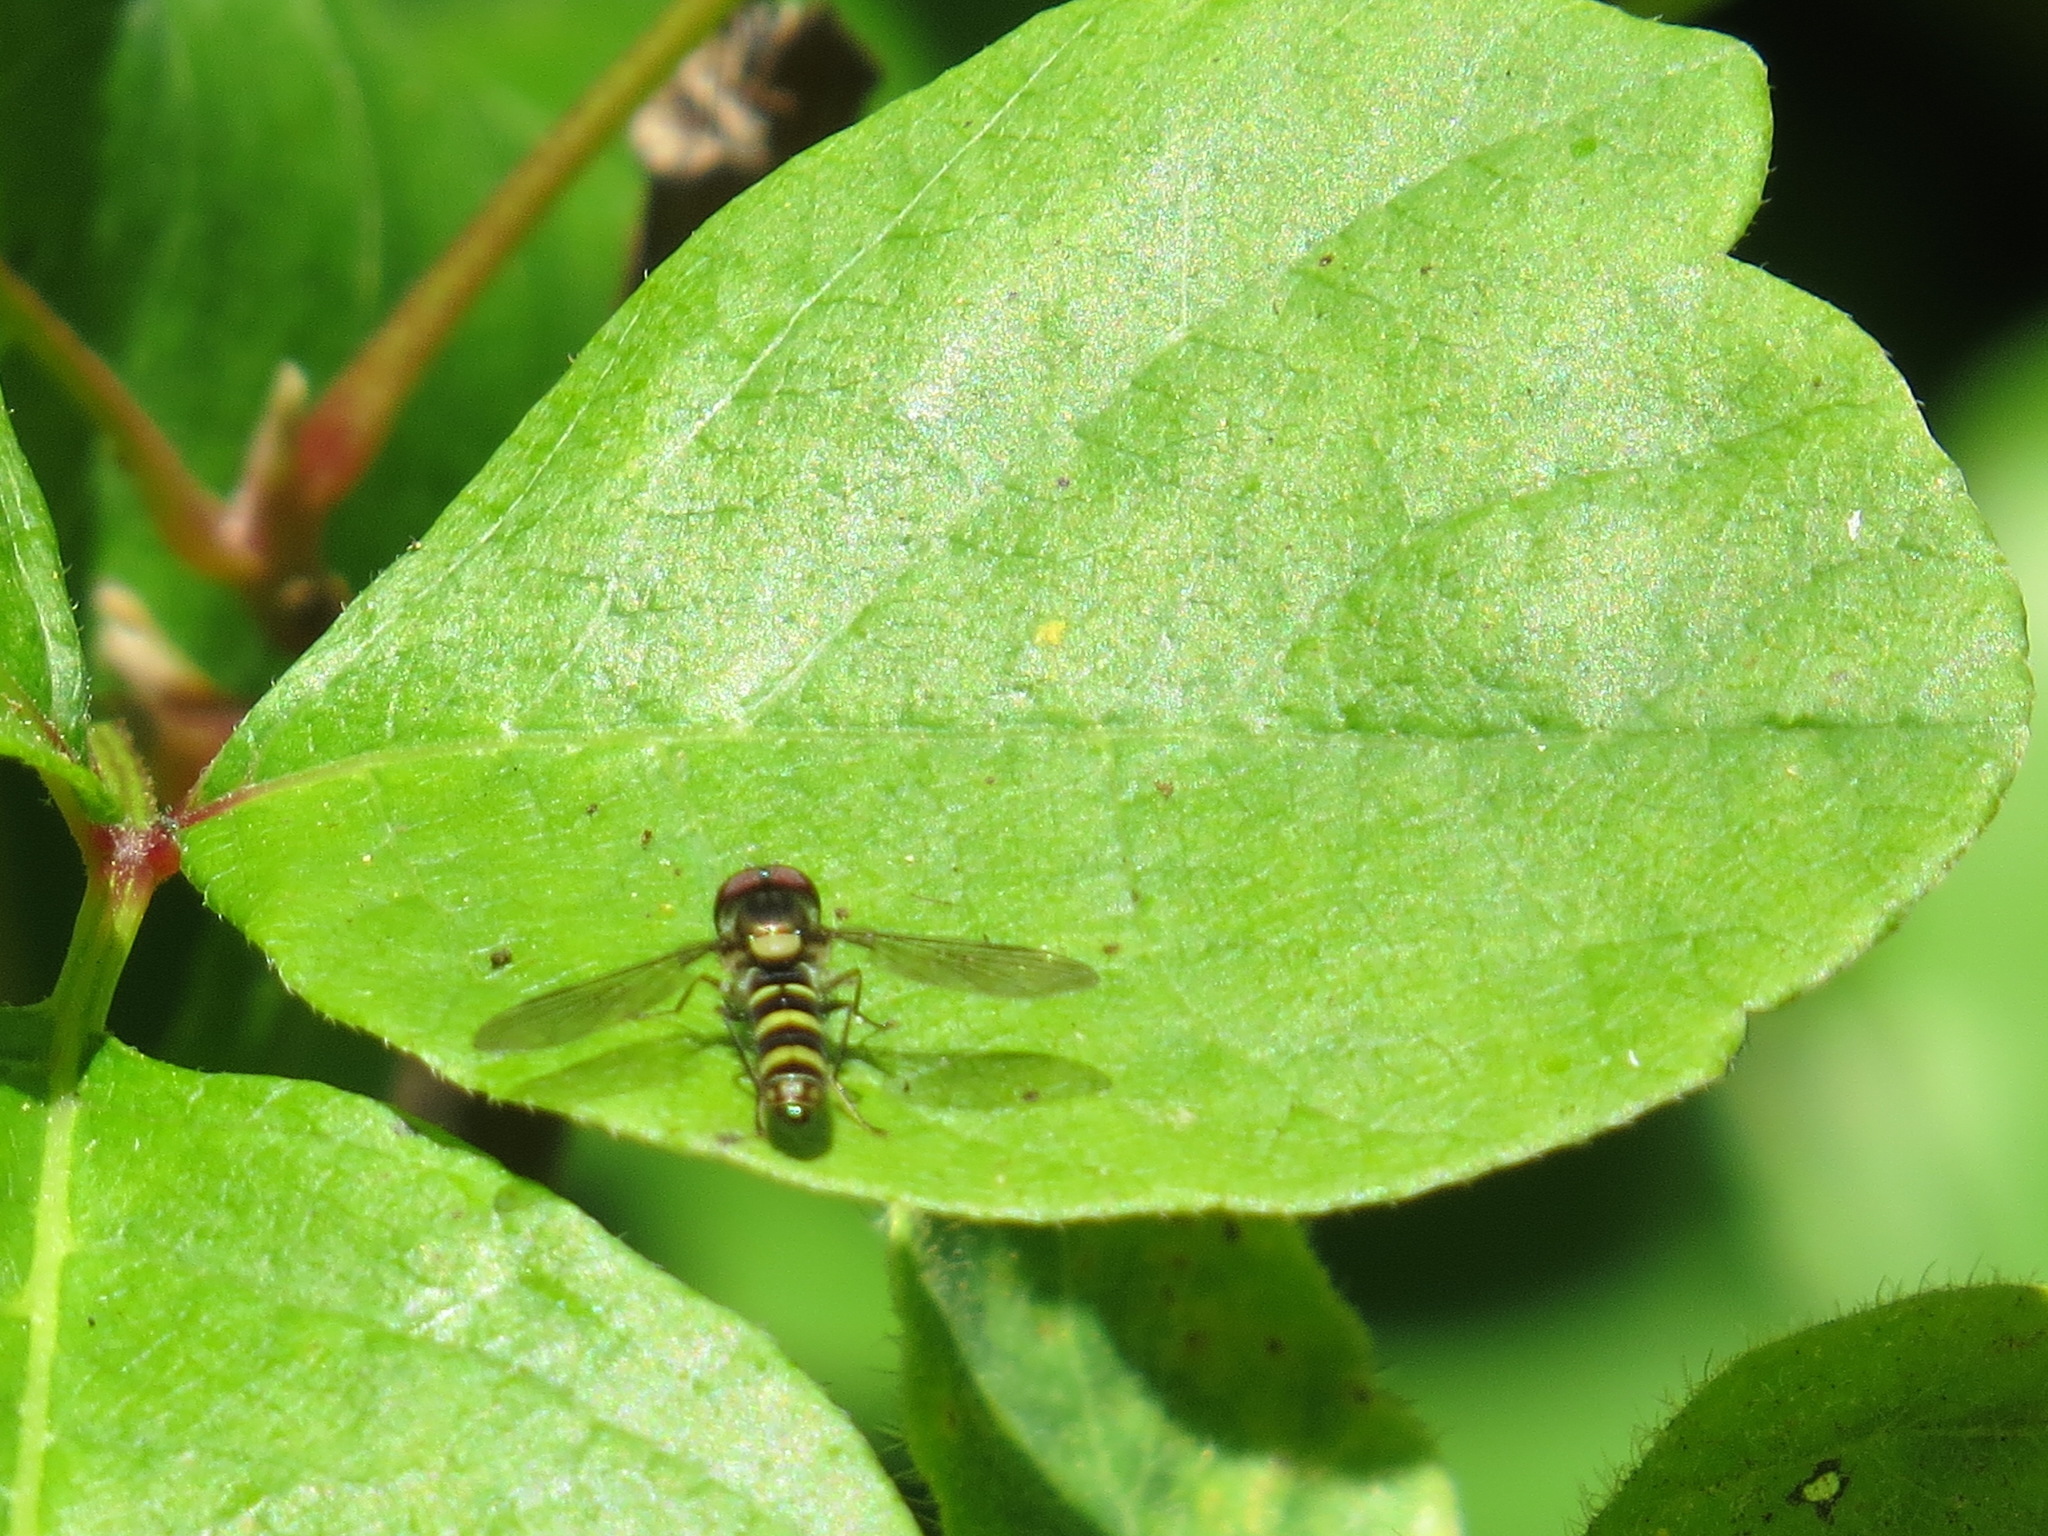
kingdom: Animalia
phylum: Arthropoda
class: Insecta
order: Diptera
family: Syrphidae
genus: Fazia
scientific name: Fazia micrura
